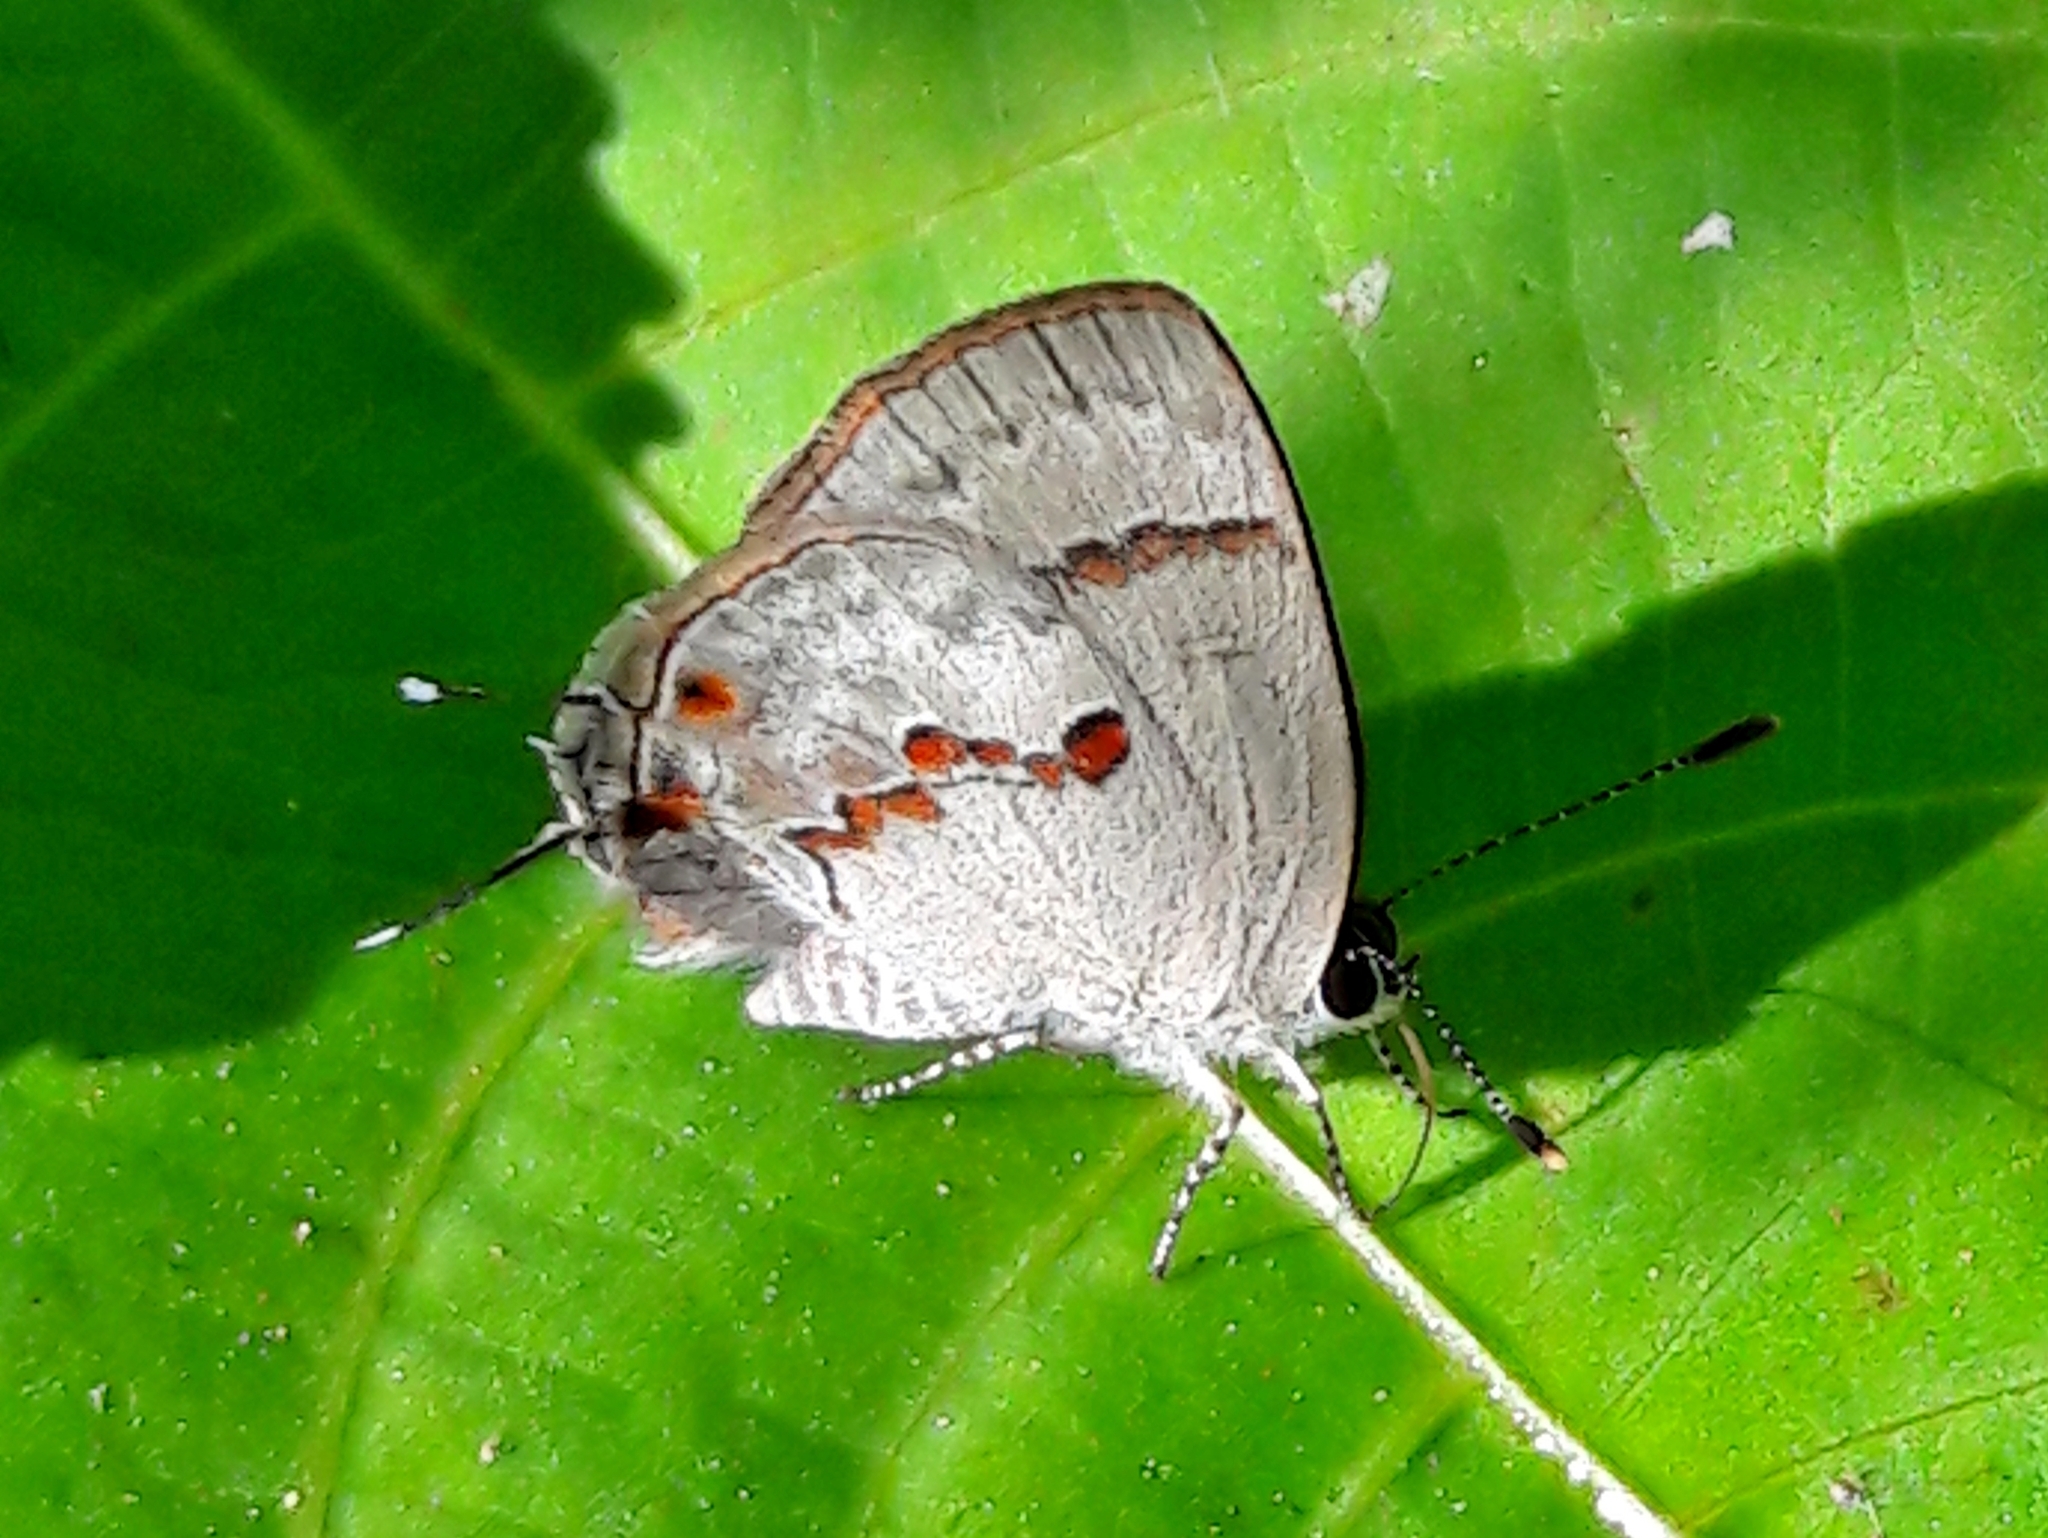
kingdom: Animalia
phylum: Arthropoda
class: Insecta
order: Lepidoptera
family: Lycaenidae
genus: Ministrymon
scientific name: Ministrymon cleon
